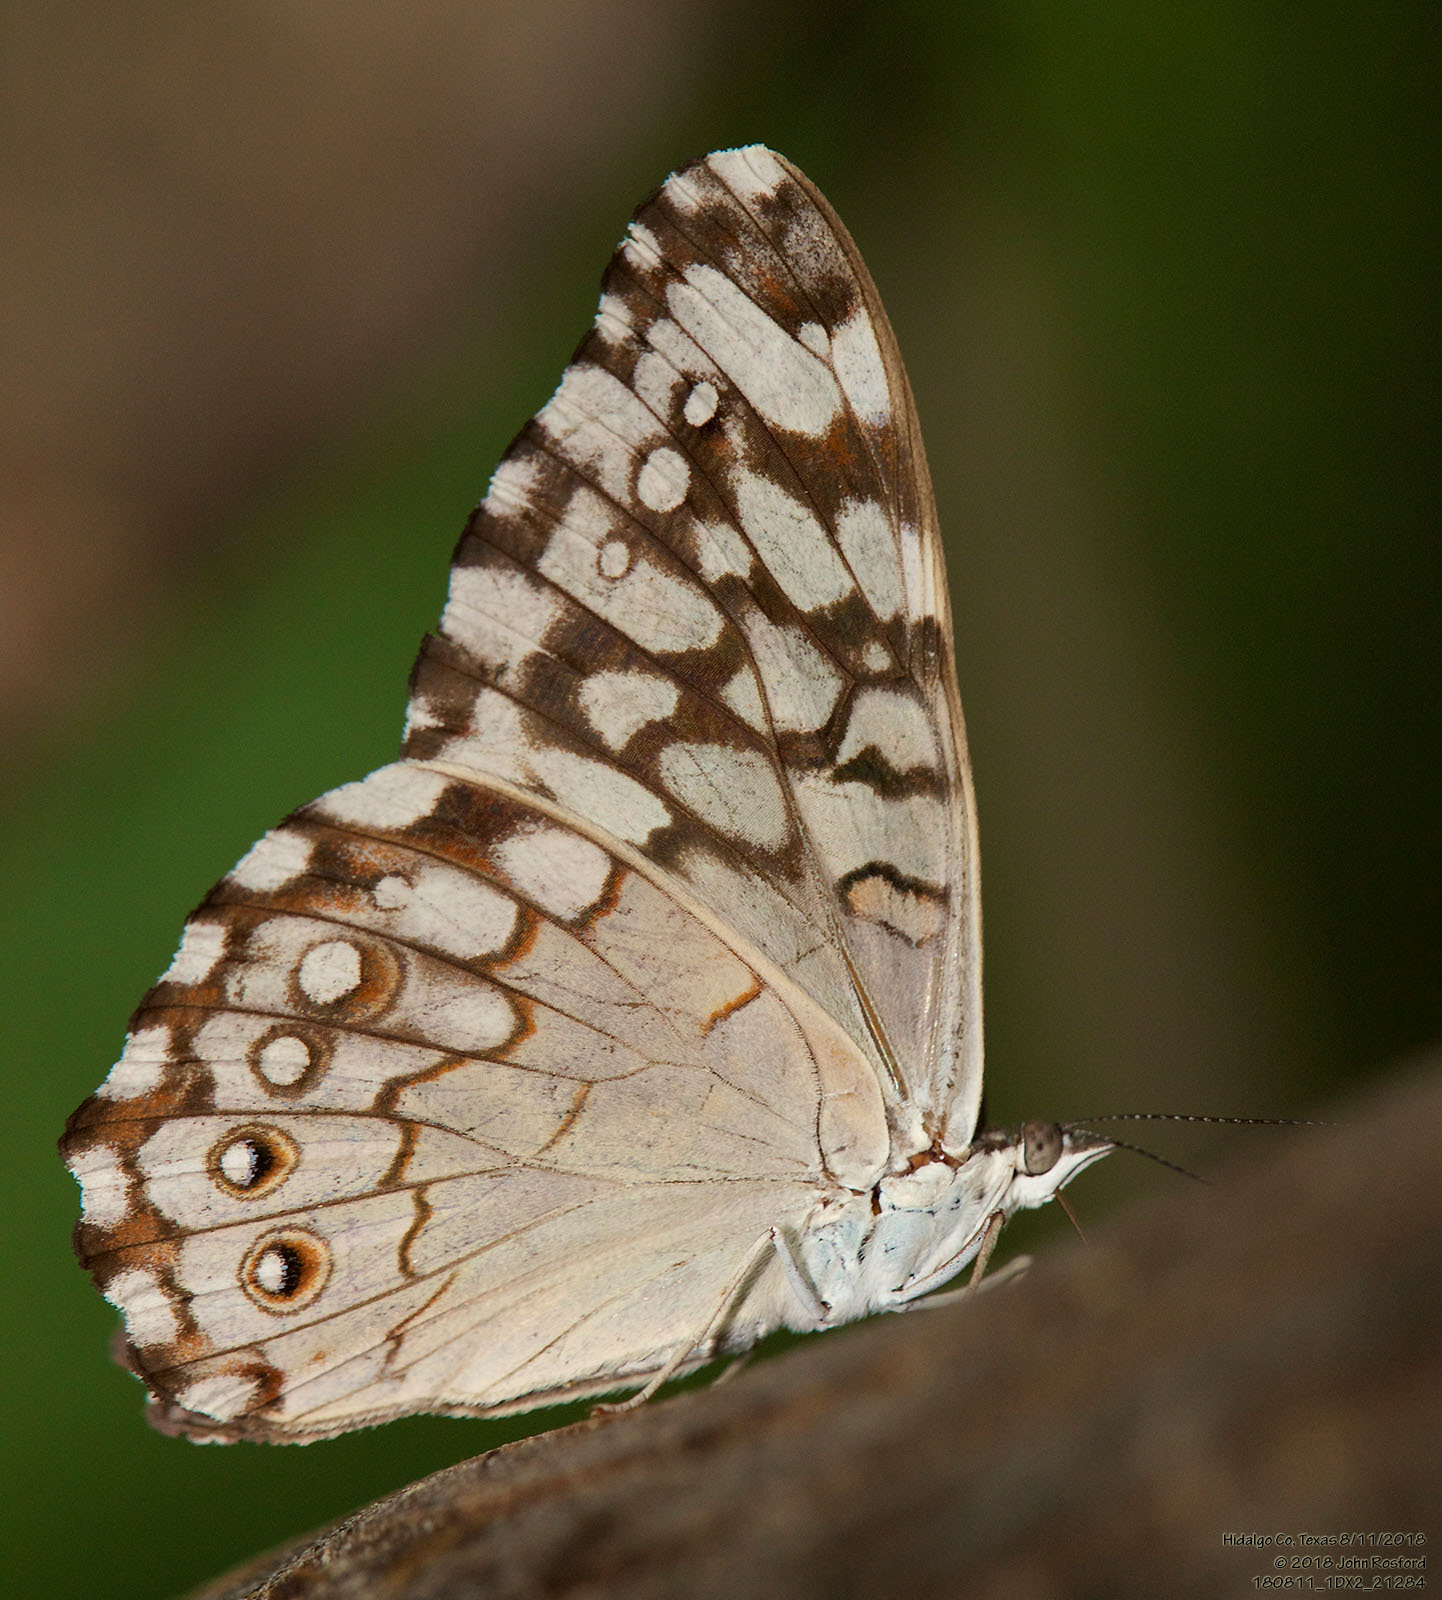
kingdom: Animalia
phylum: Arthropoda
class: Insecta
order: Lepidoptera
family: Nymphalidae
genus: Hamadryas
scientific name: Hamadryas februa
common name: Gray cracker
